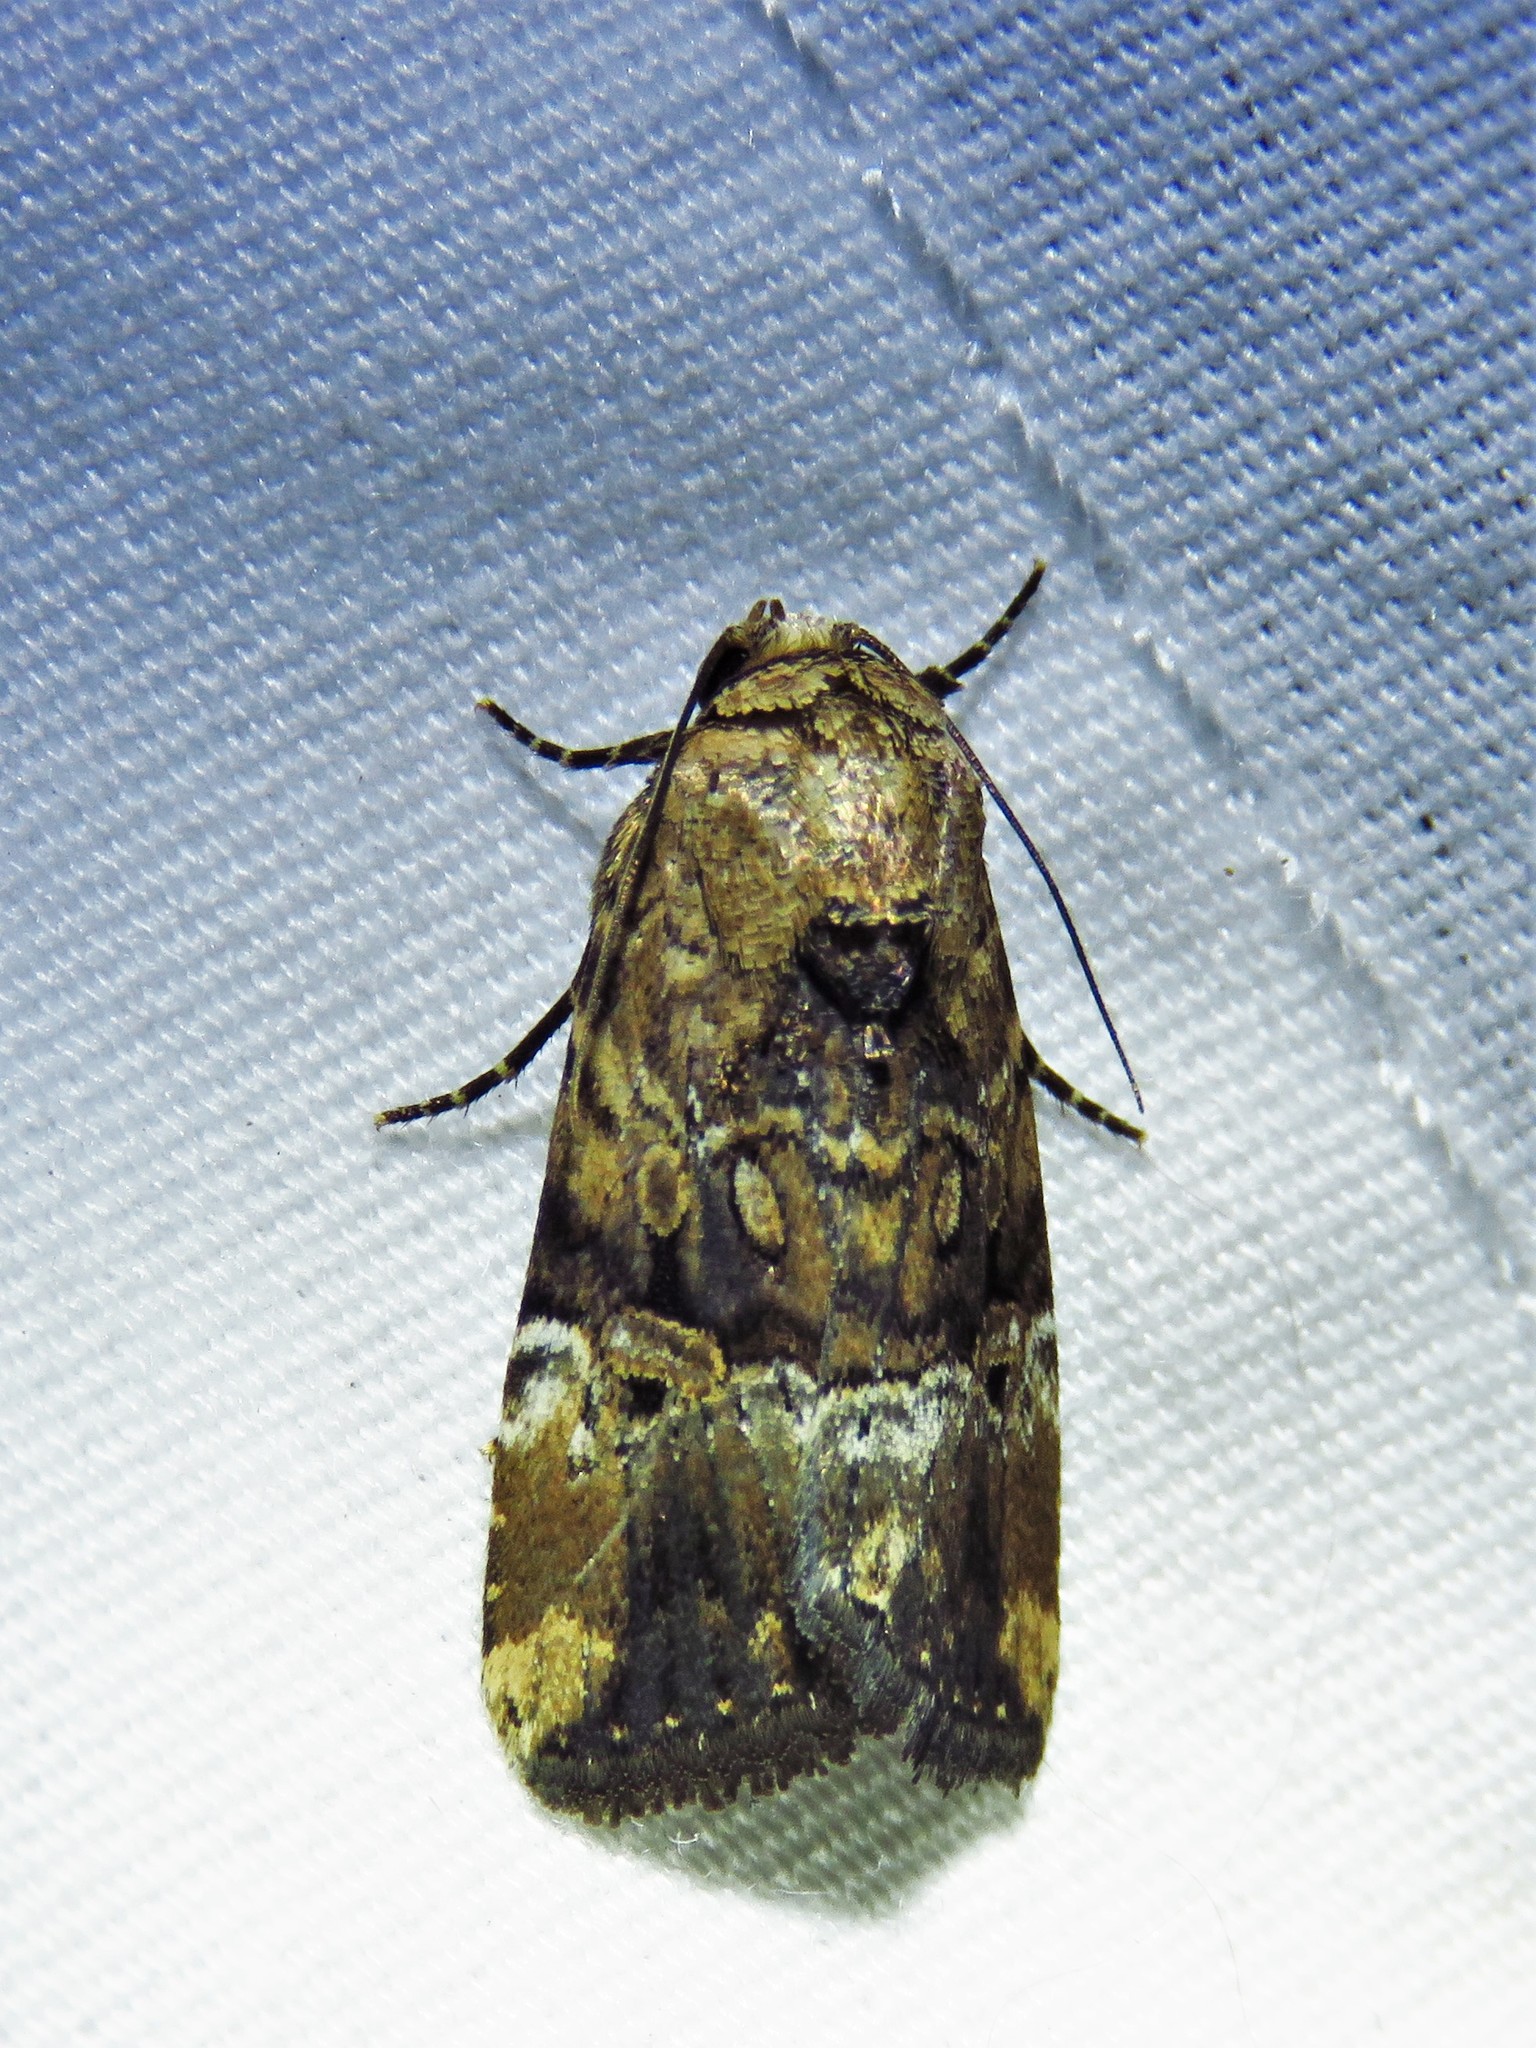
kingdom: Animalia
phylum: Arthropoda
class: Insecta
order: Lepidoptera
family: Noctuidae
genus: Elaphria
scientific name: Elaphria chalcedonia
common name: Chalcedony midget
